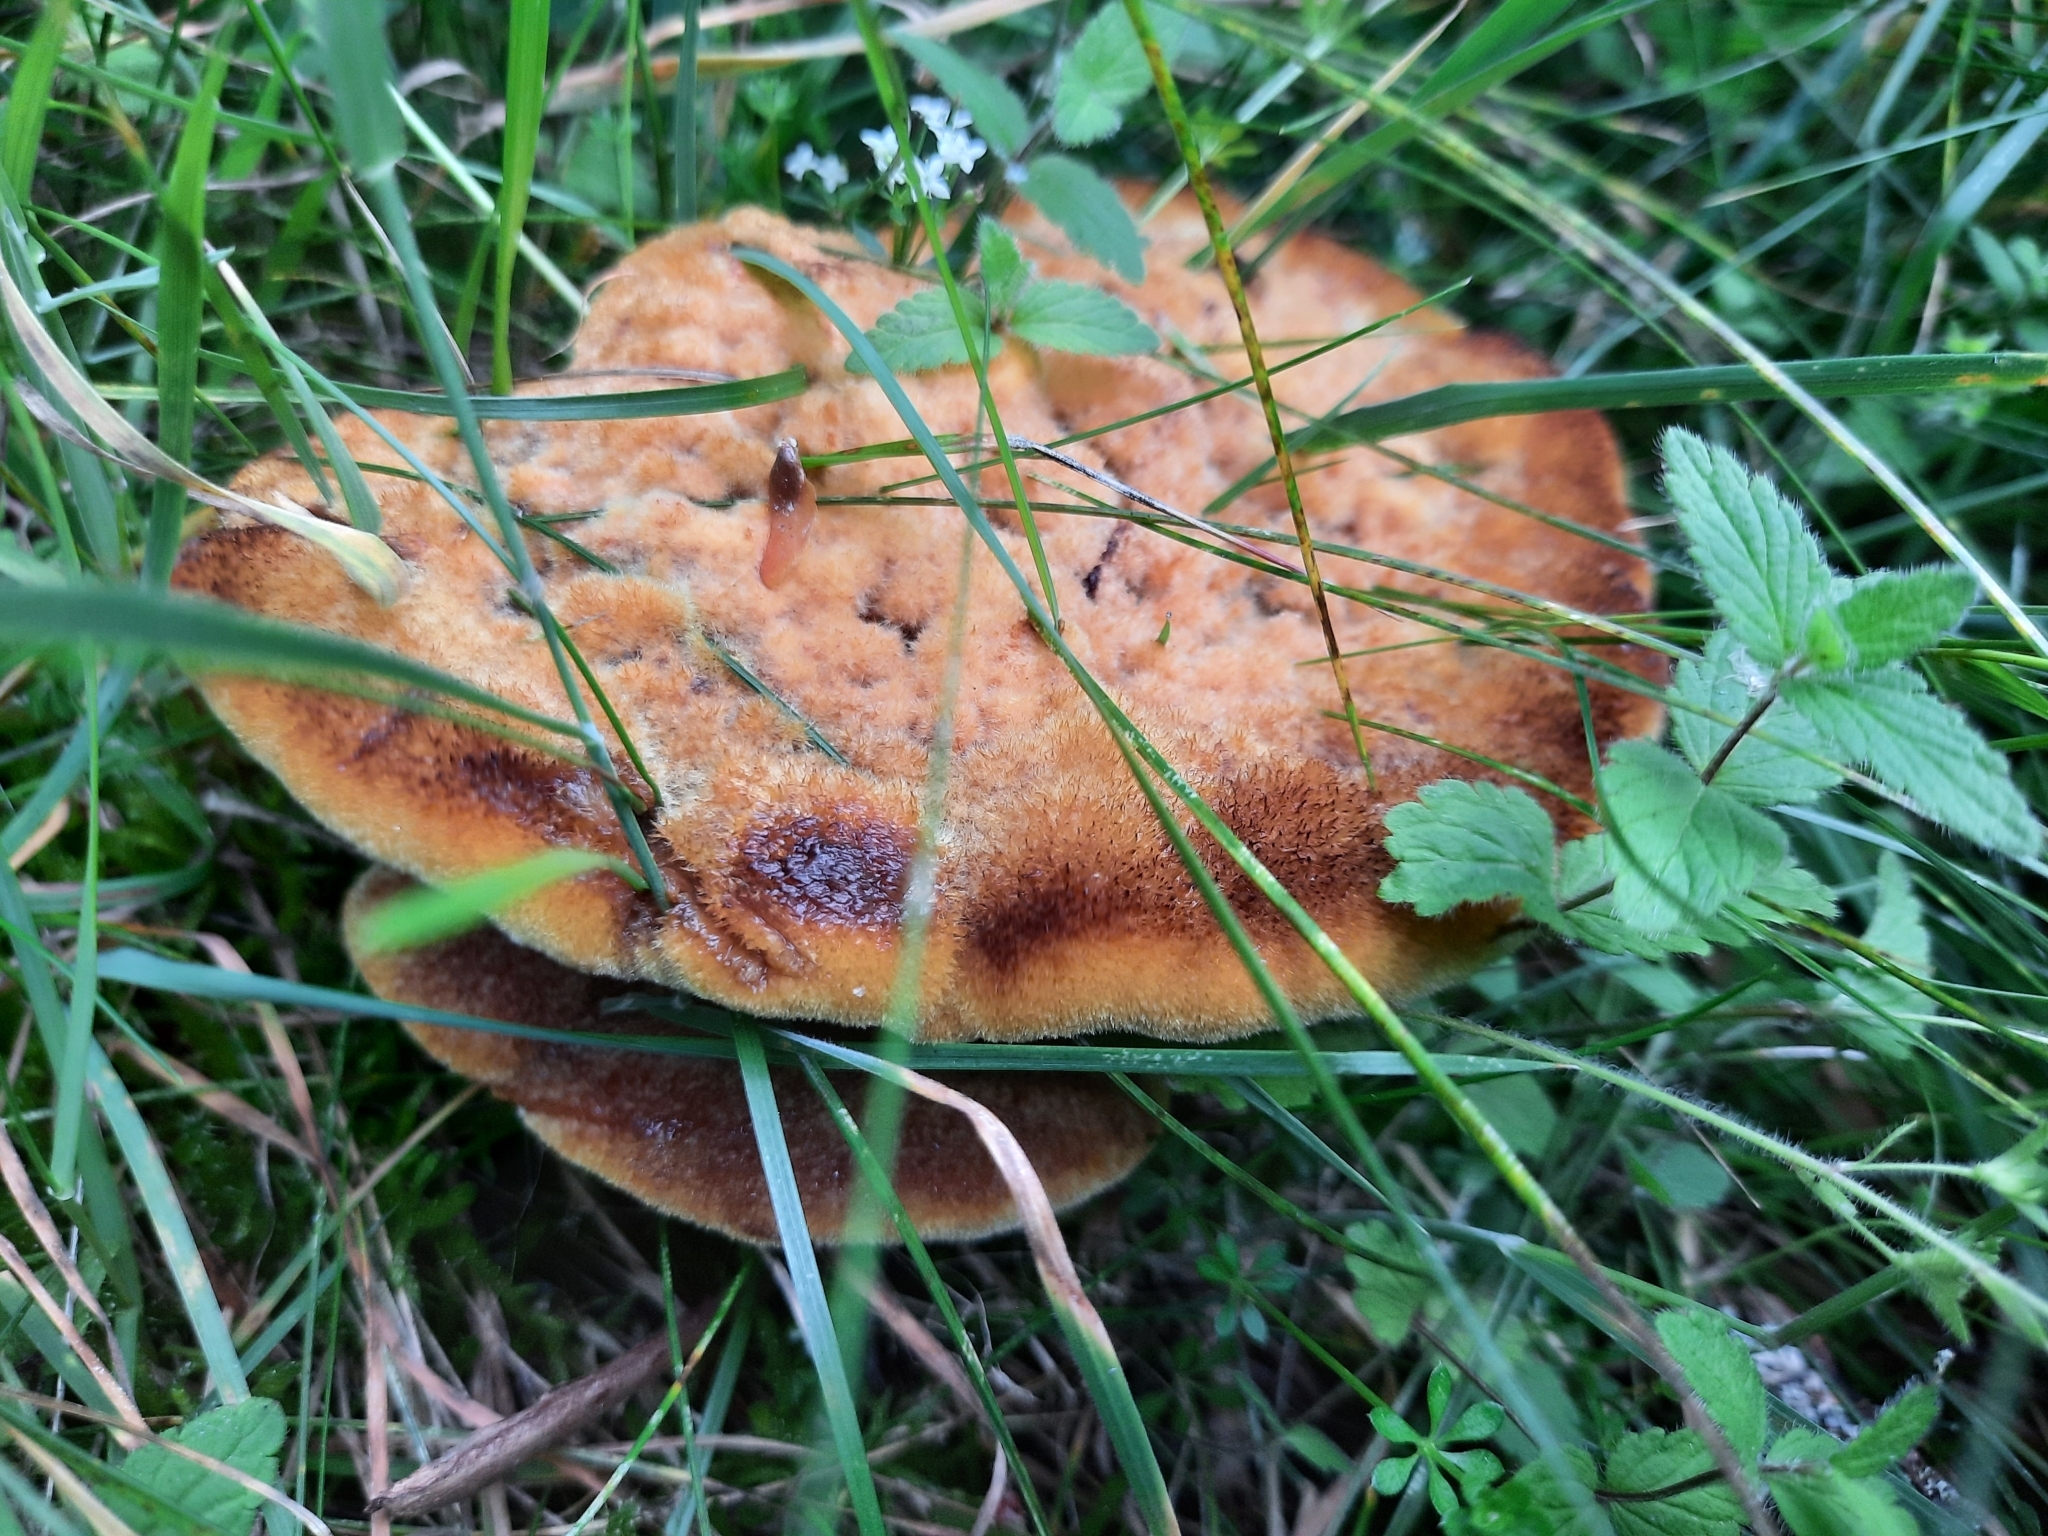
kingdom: Fungi
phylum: Basidiomycota
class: Agaricomycetes
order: Polyporales
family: Laetiporaceae
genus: Phaeolus
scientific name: Phaeolus schweinitzii
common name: Dyer's mazegill
